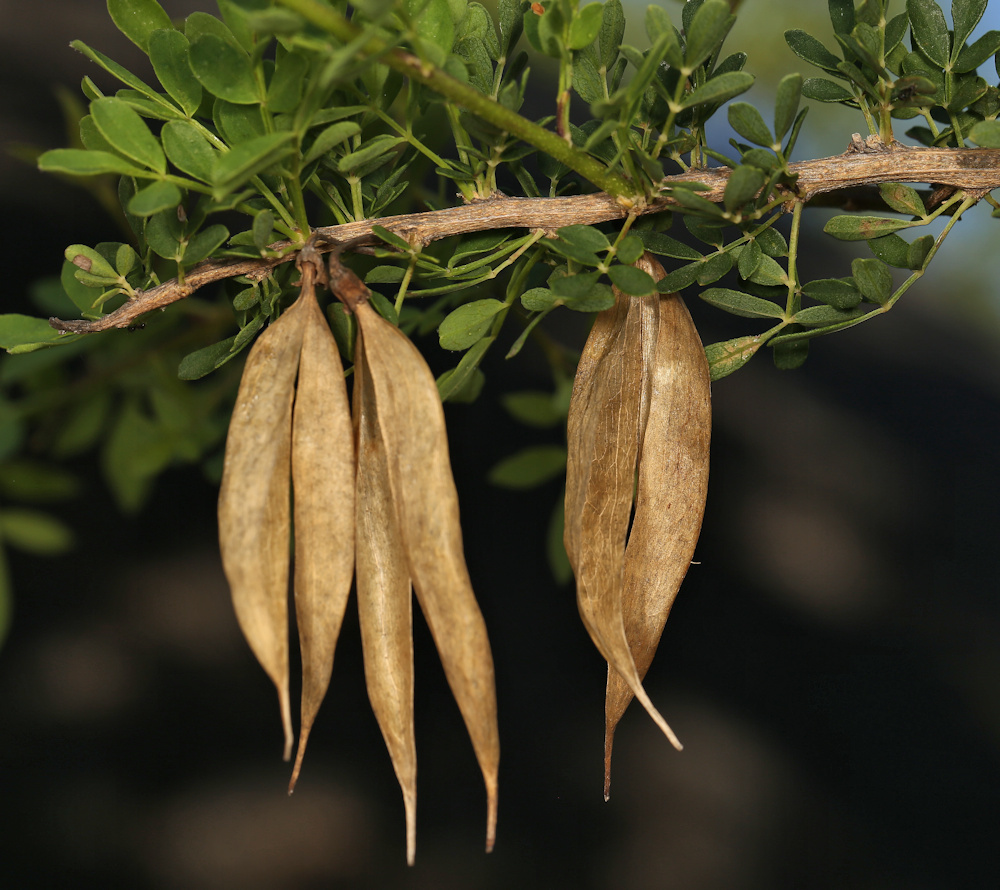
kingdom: Plantae
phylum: Tracheophyta
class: Magnoliopsida
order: Lamiales
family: Bignoniaceae
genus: Rhigozum
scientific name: Rhigozum zambesiacum
